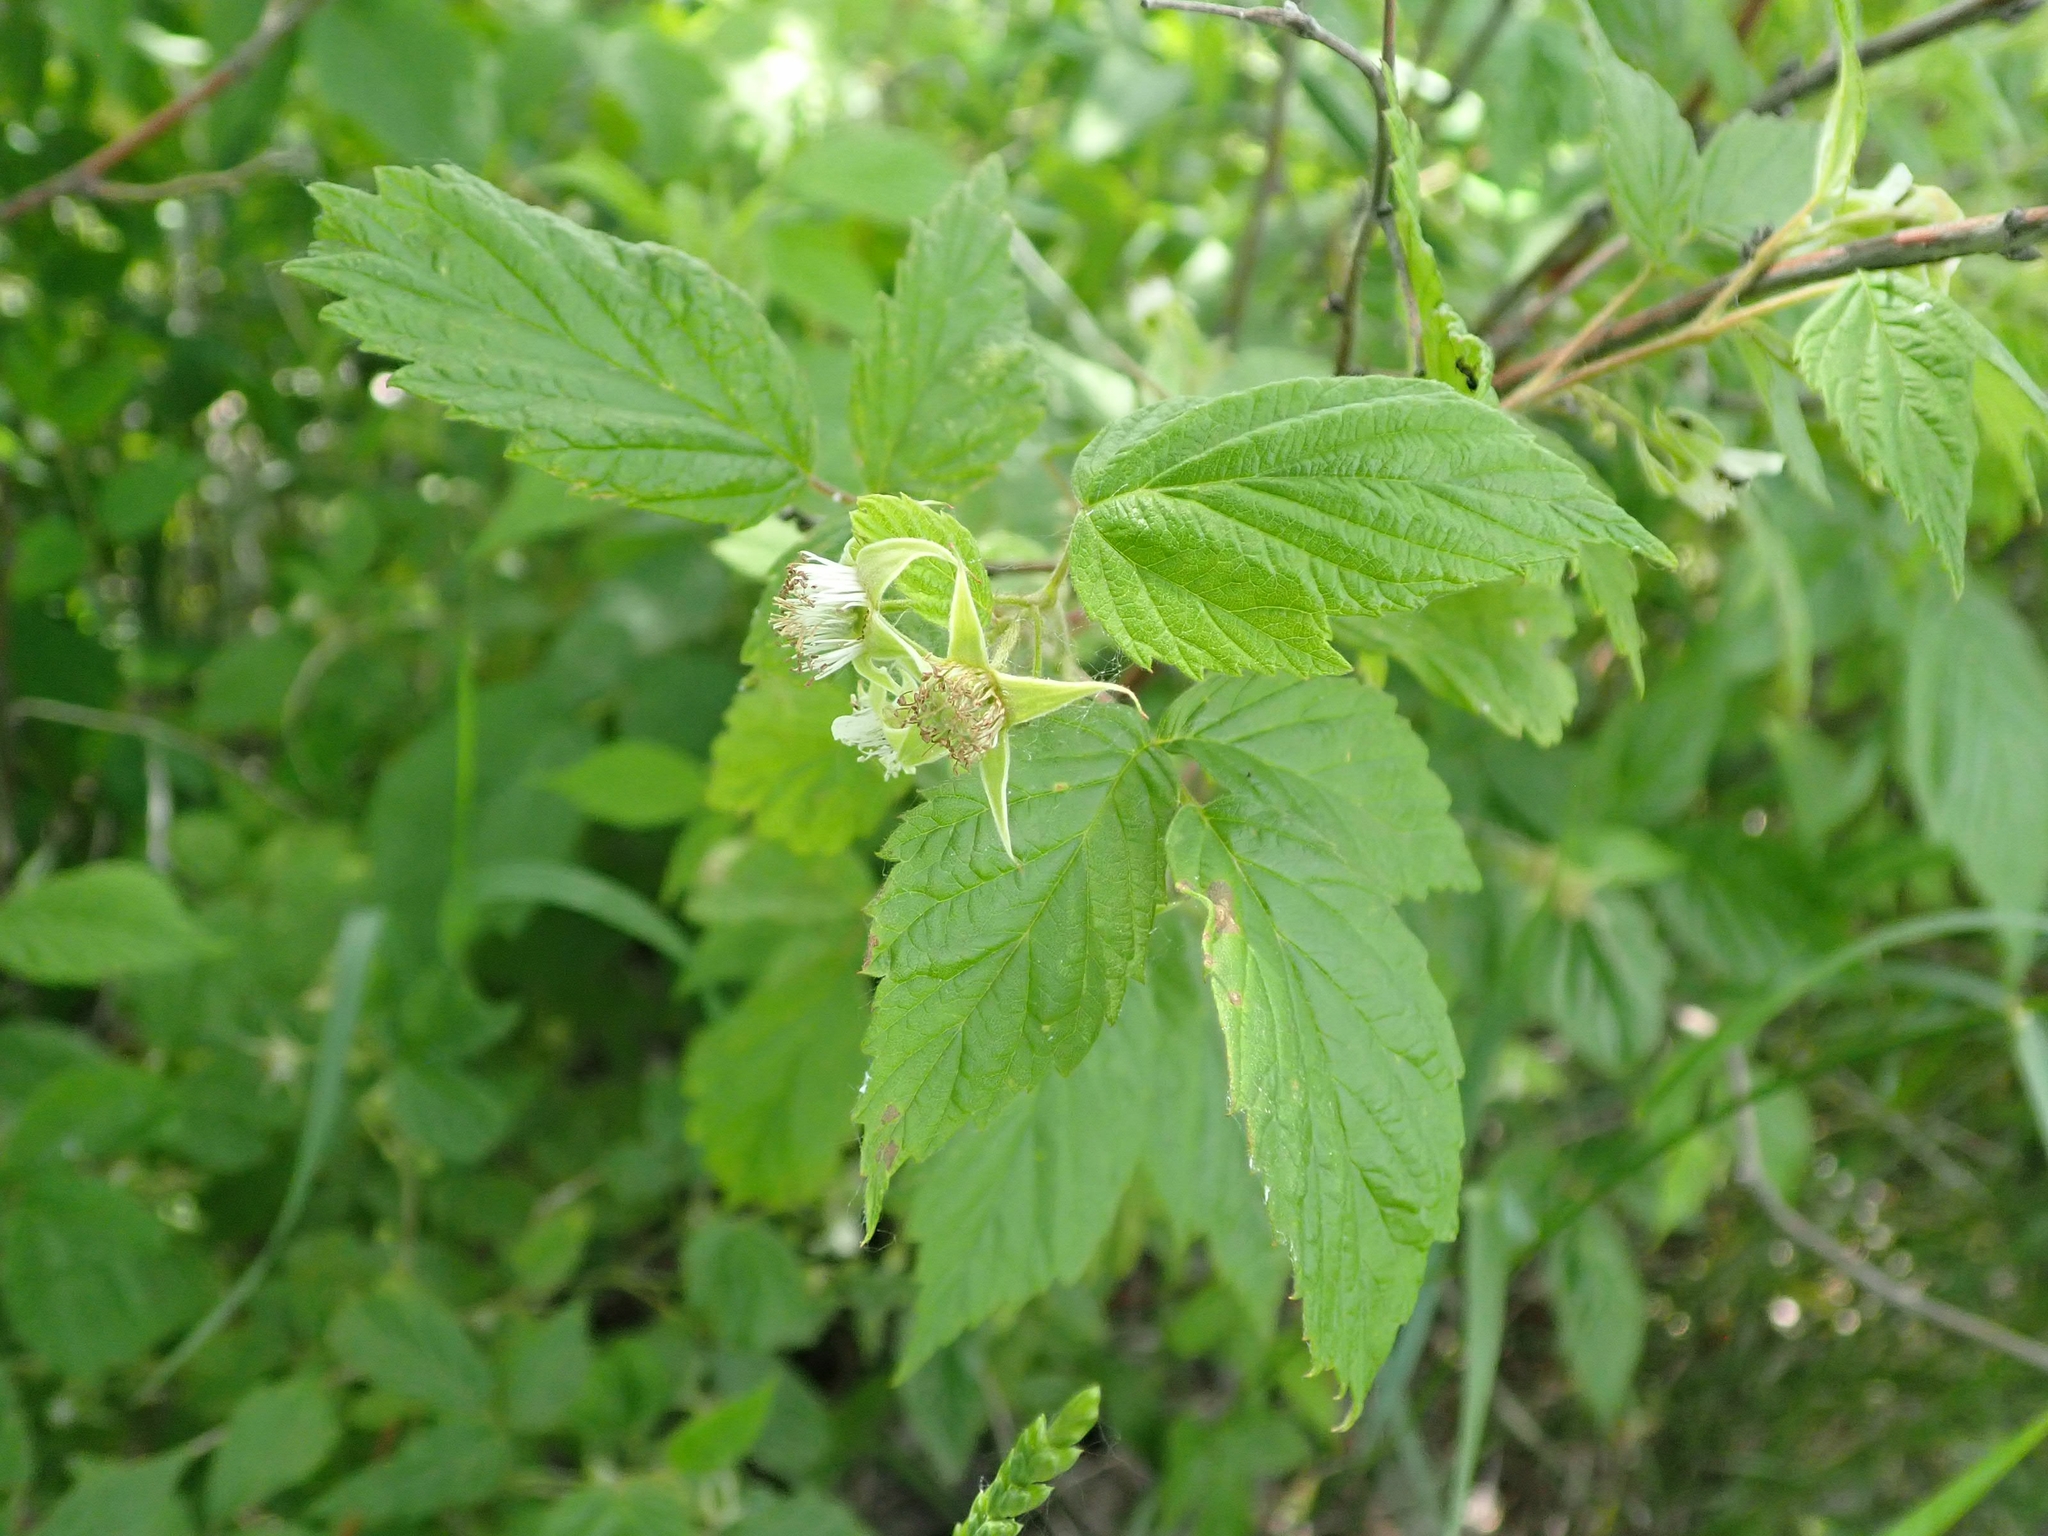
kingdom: Plantae
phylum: Tracheophyta
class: Magnoliopsida
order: Rosales
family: Rosaceae
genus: Rubus
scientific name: Rubus idaeus
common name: Raspberry
